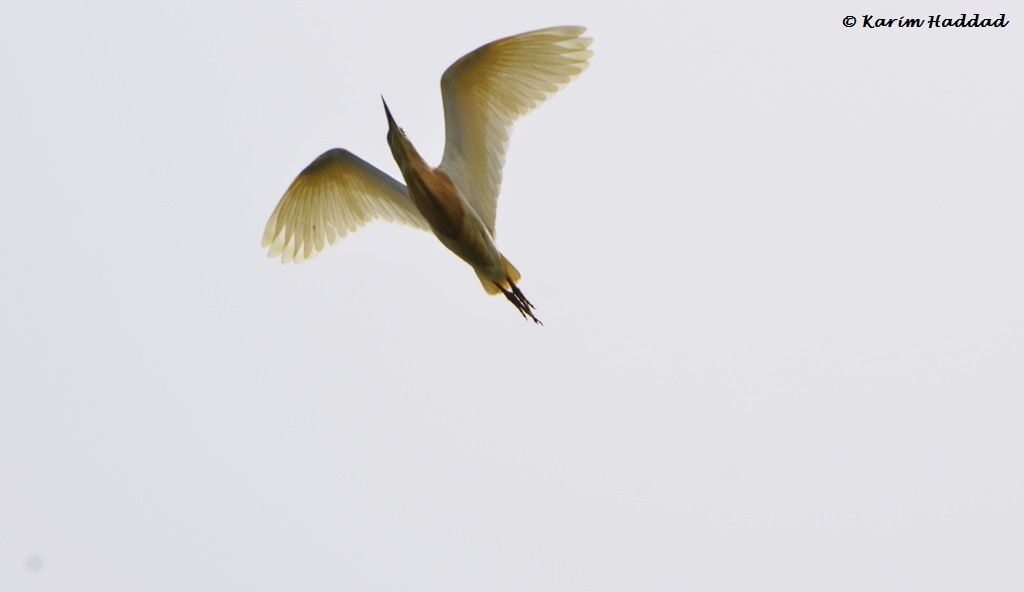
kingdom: Animalia
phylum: Chordata
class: Aves
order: Pelecaniformes
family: Ardeidae
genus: Ardeola
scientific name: Ardeola ralloides
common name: Squacco heron
